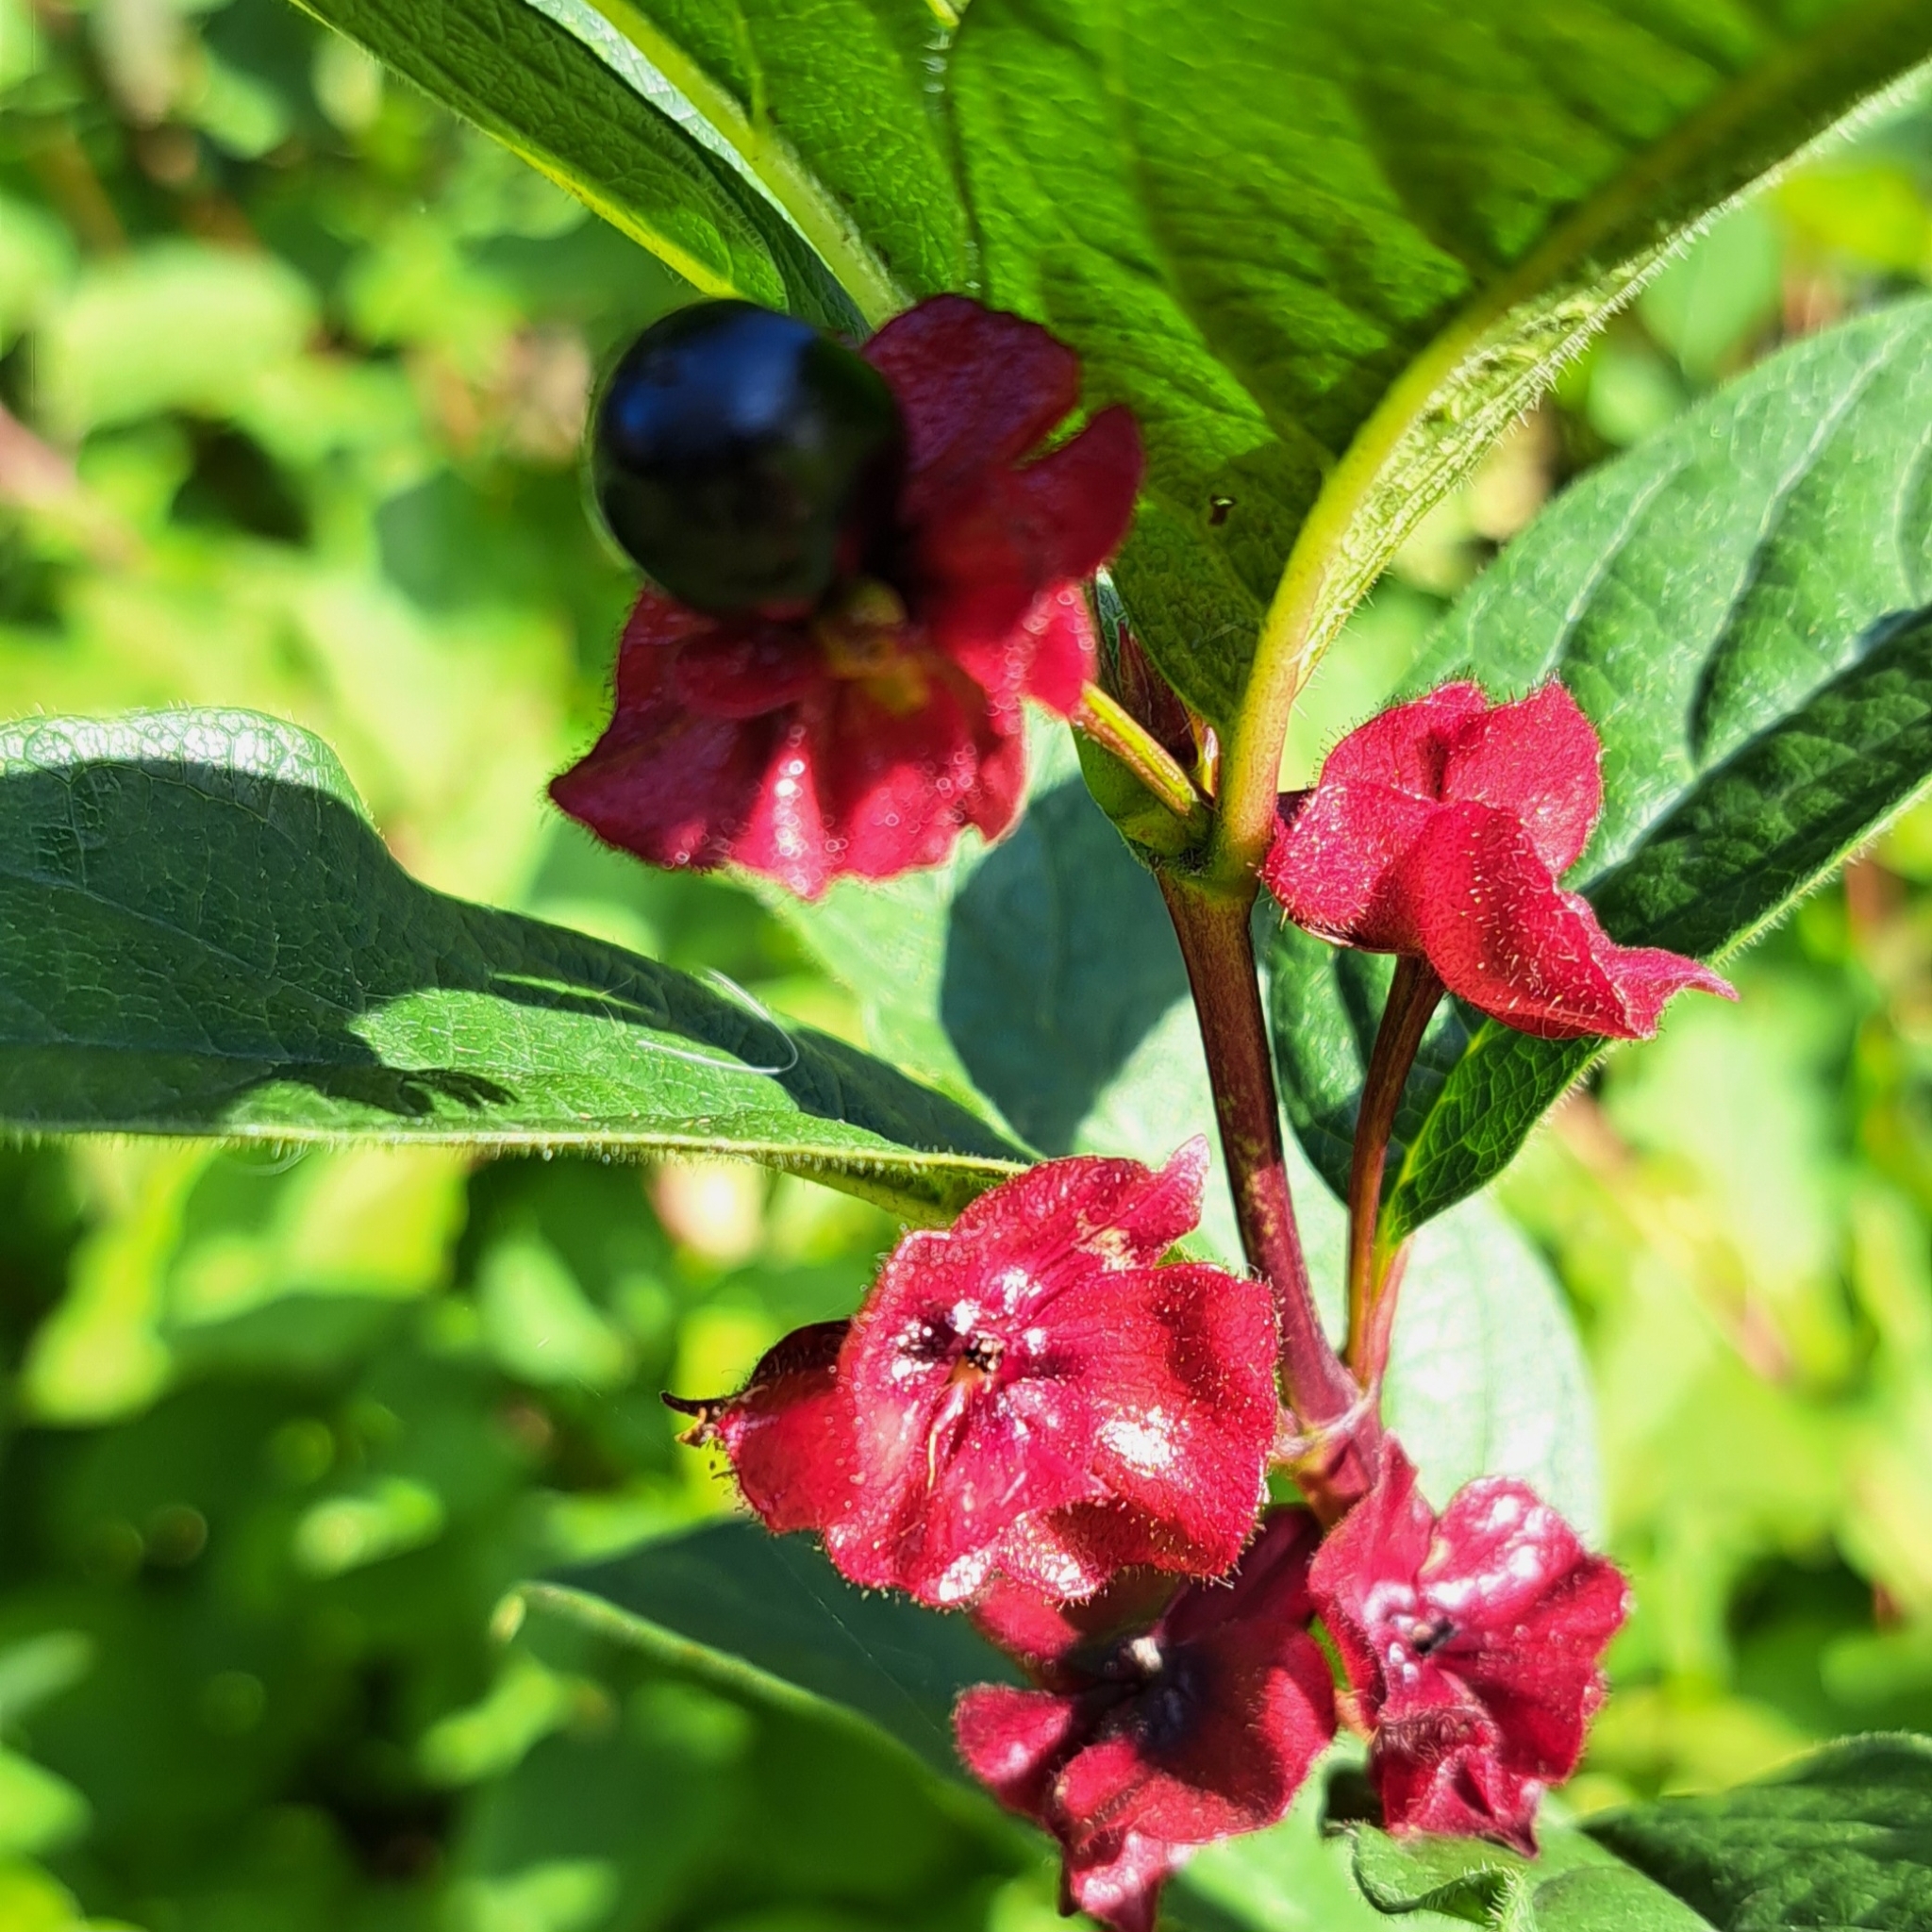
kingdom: Plantae
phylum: Tracheophyta
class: Magnoliopsida
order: Dipsacales
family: Caprifoliaceae
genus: Lonicera
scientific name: Lonicera involucrata
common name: Californian honeysuckle
